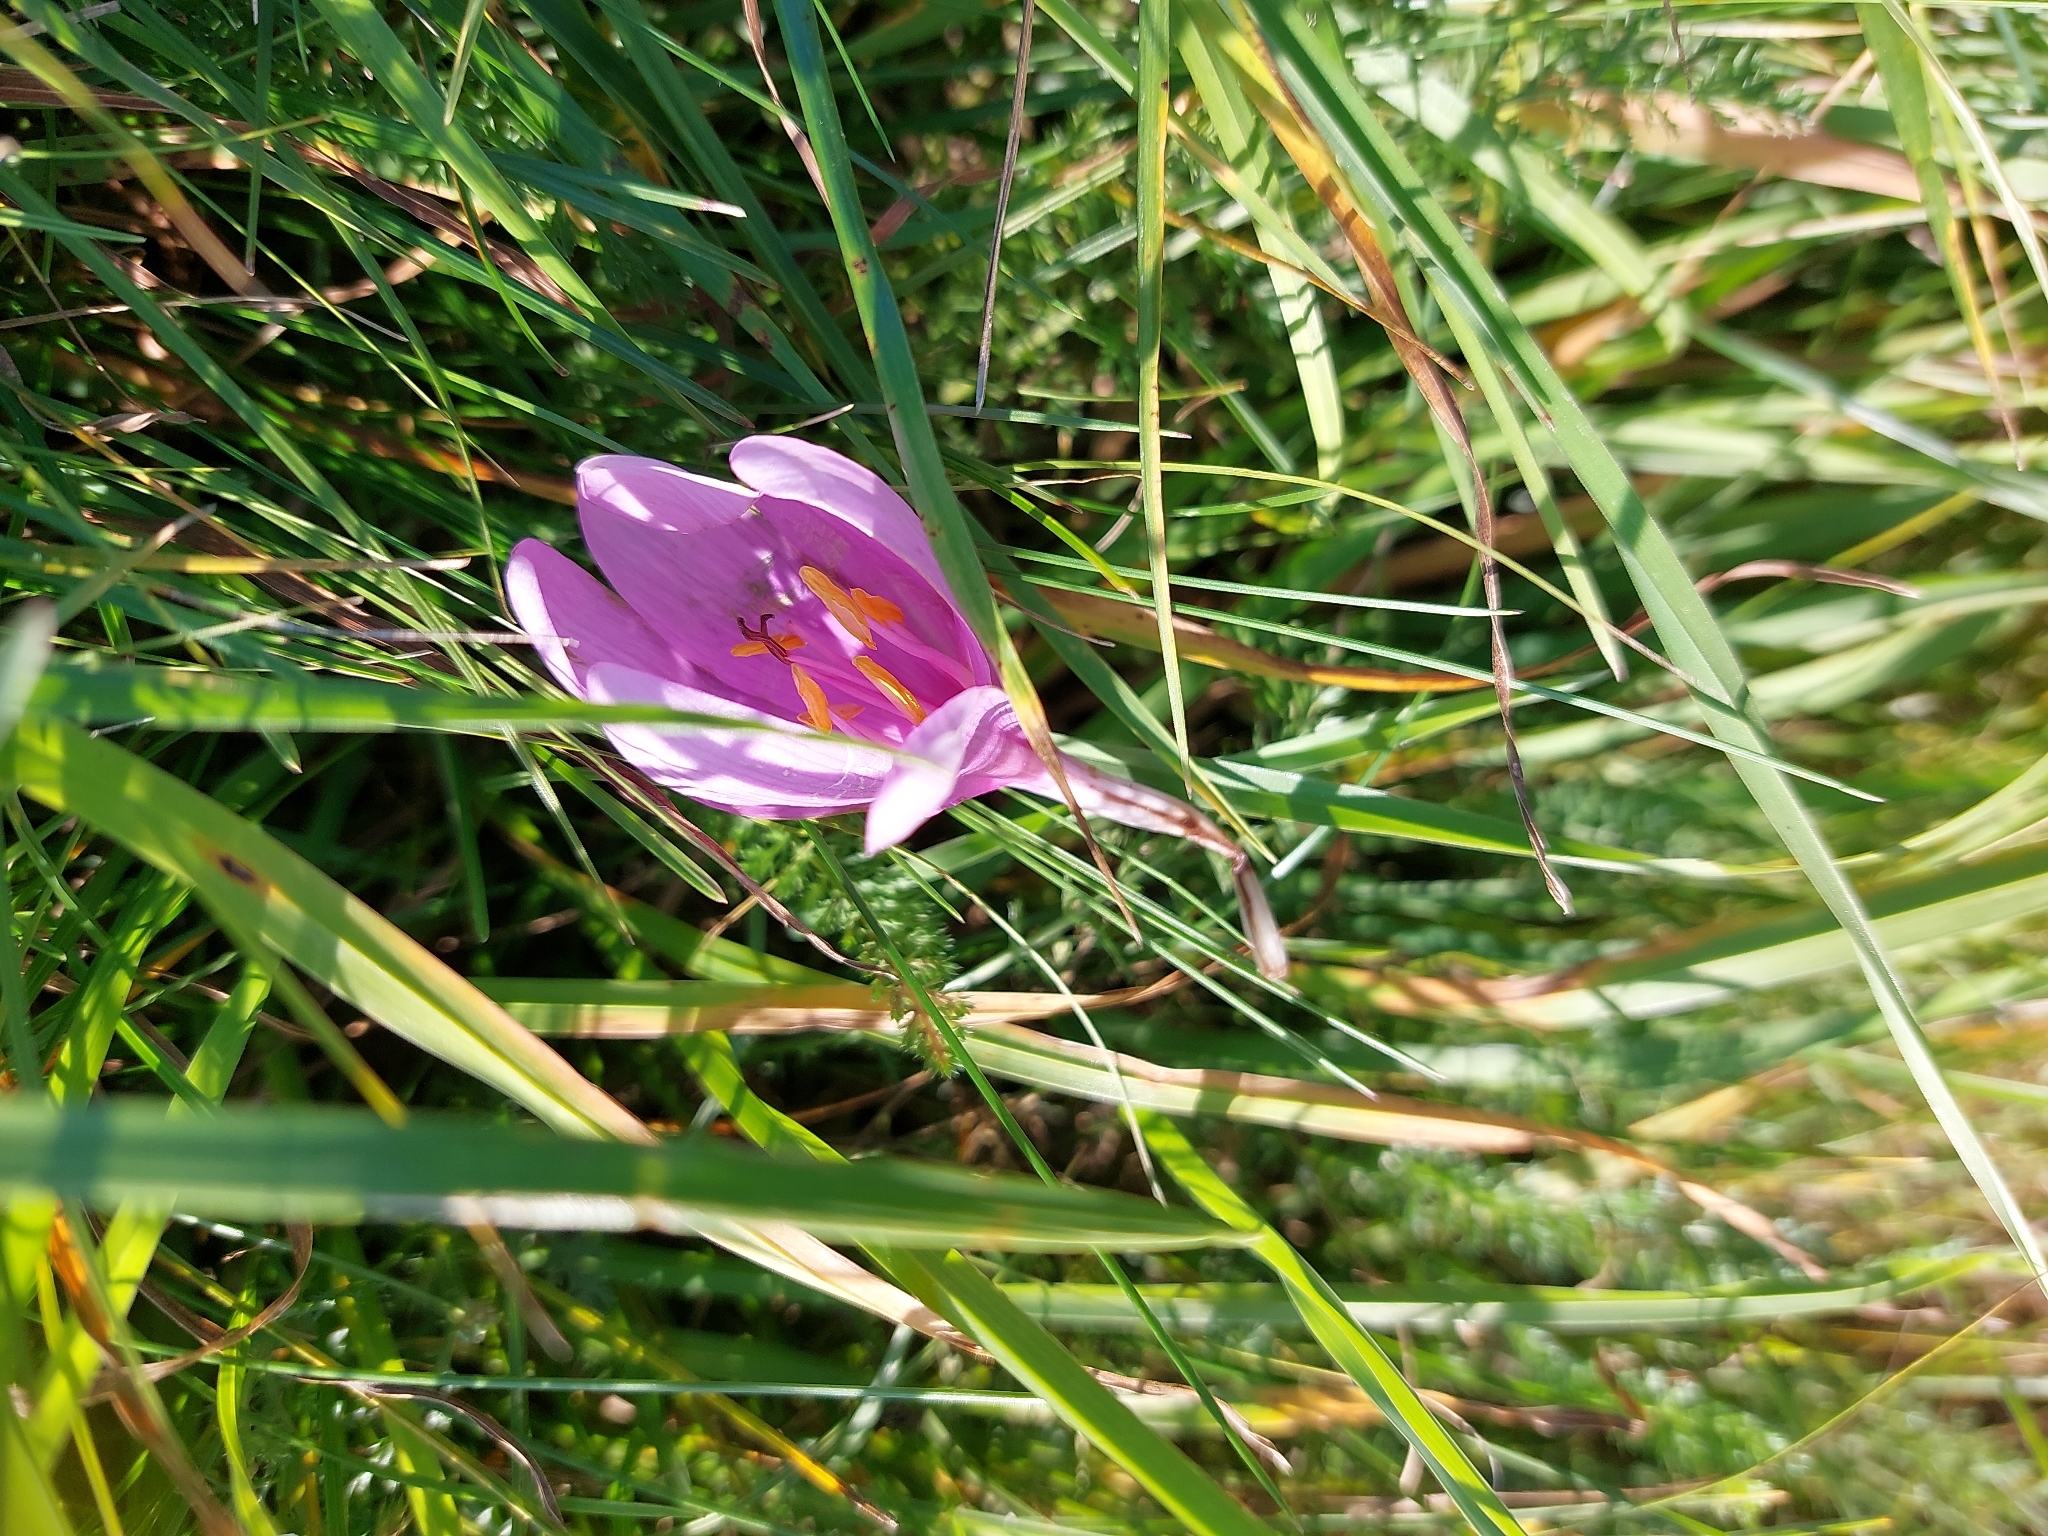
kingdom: Plantae
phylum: Tracheophyta
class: Liliopsida
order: Liliales
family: Colchicaceae
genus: Colchicum
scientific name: Colchicum autumnale
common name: Autumn crocus
